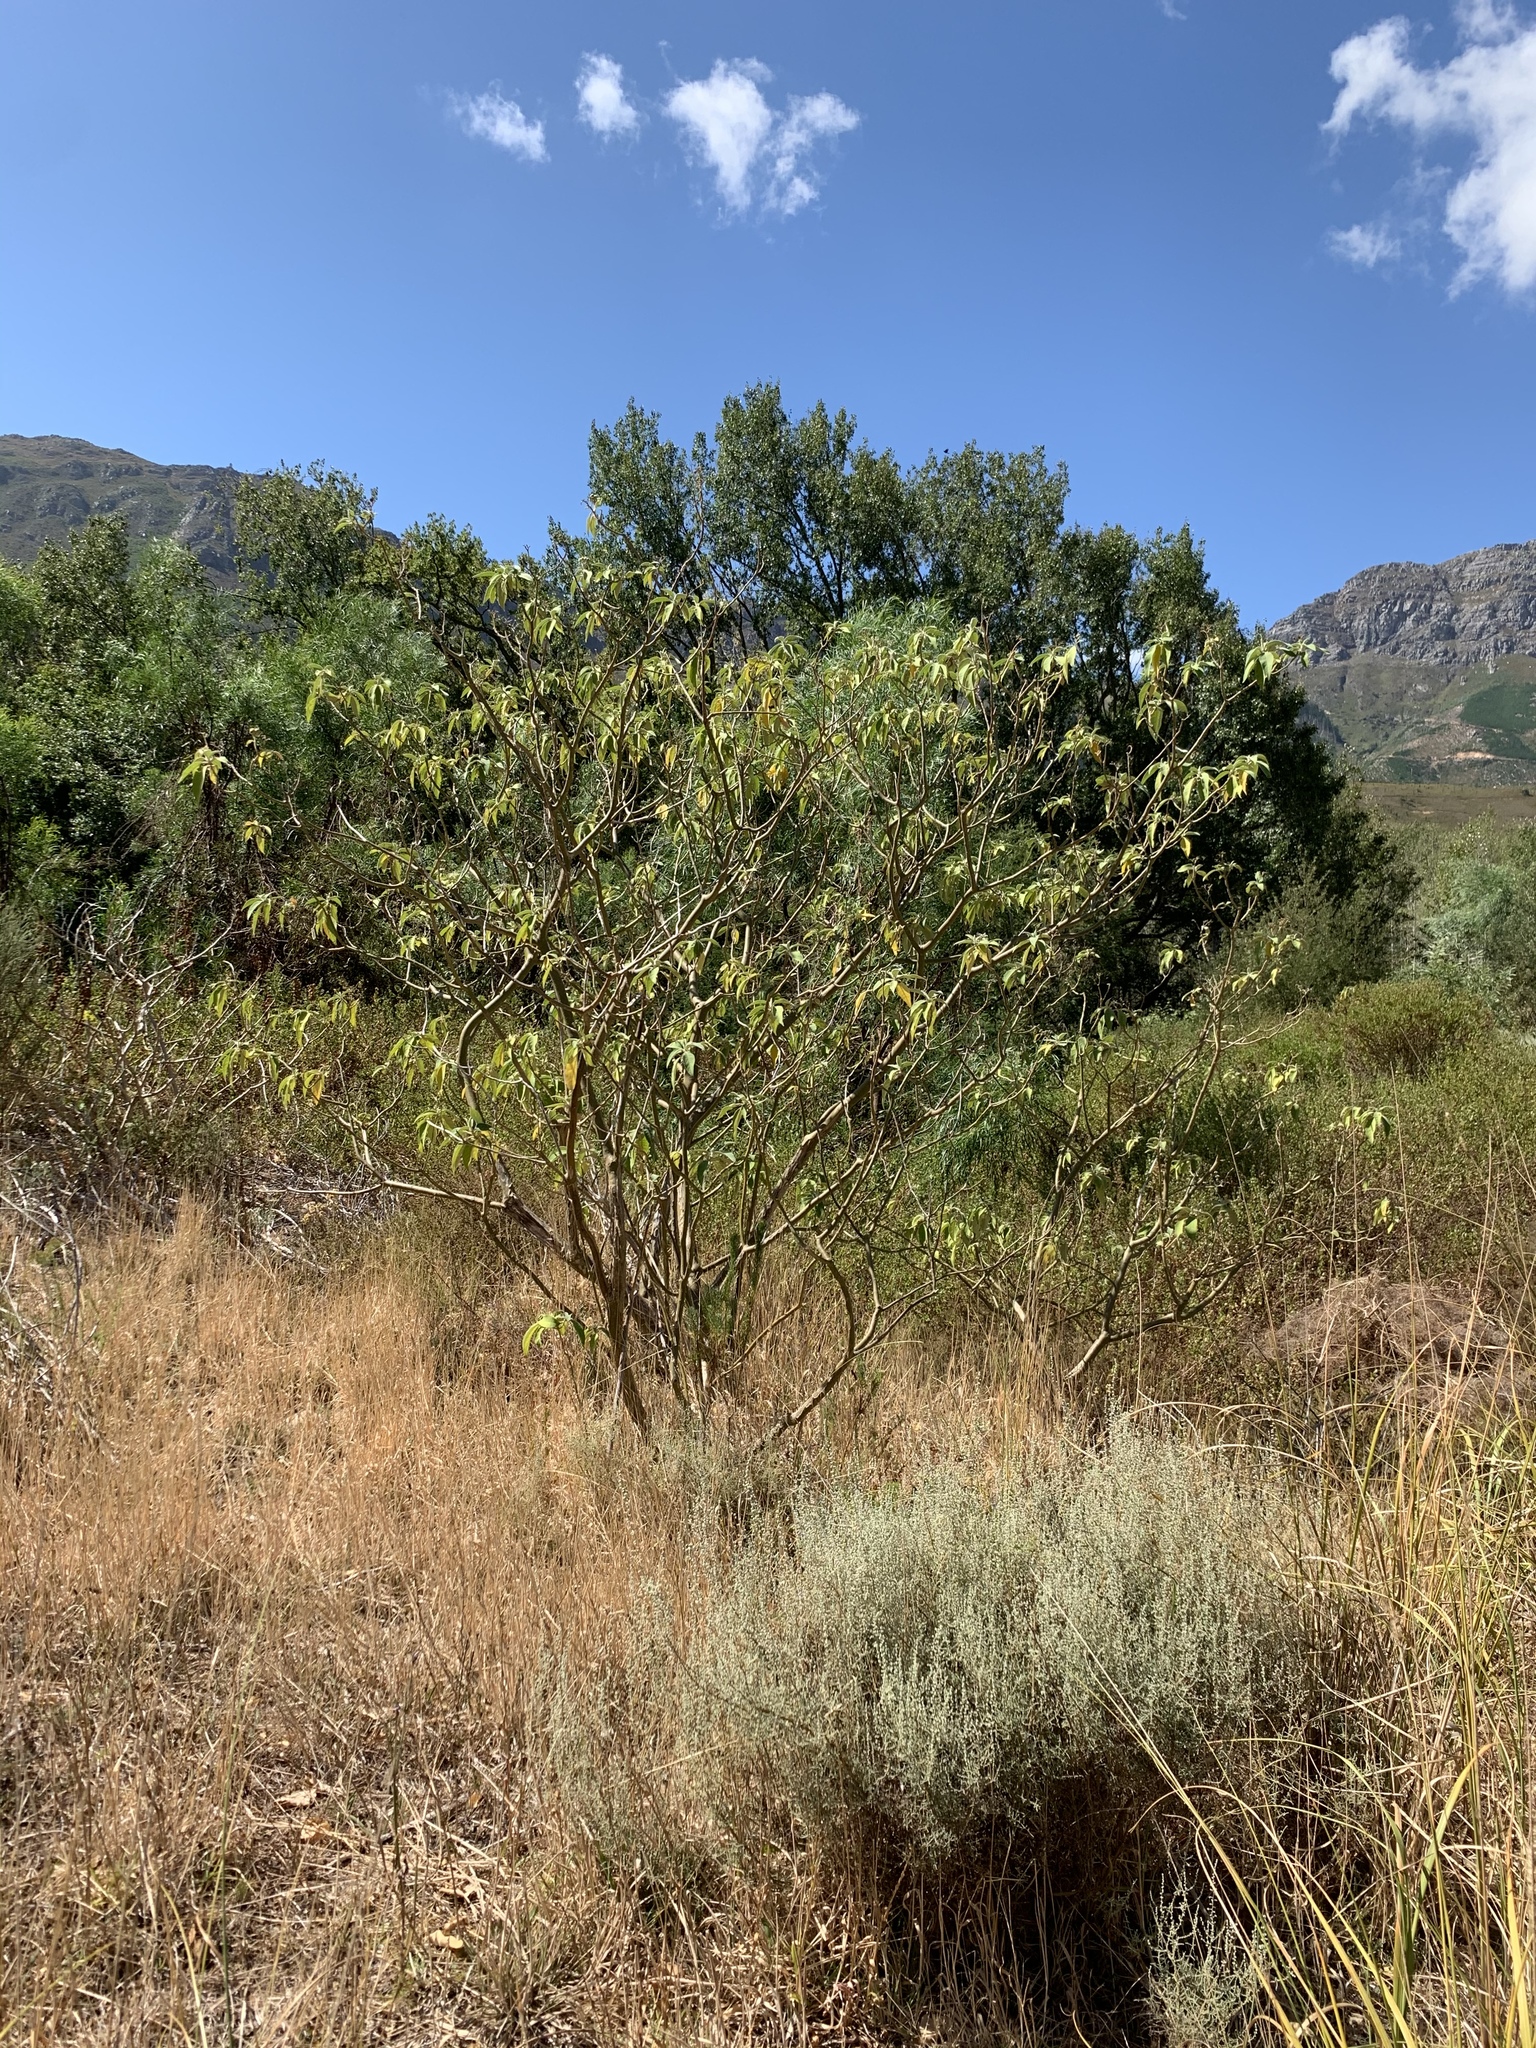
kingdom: Plantae
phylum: Tracheophyta
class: Magnoliopsida
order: Solanales
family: Solanaceae
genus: Solanum
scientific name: Solanum mauritianum
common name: Earleaf nightshade
